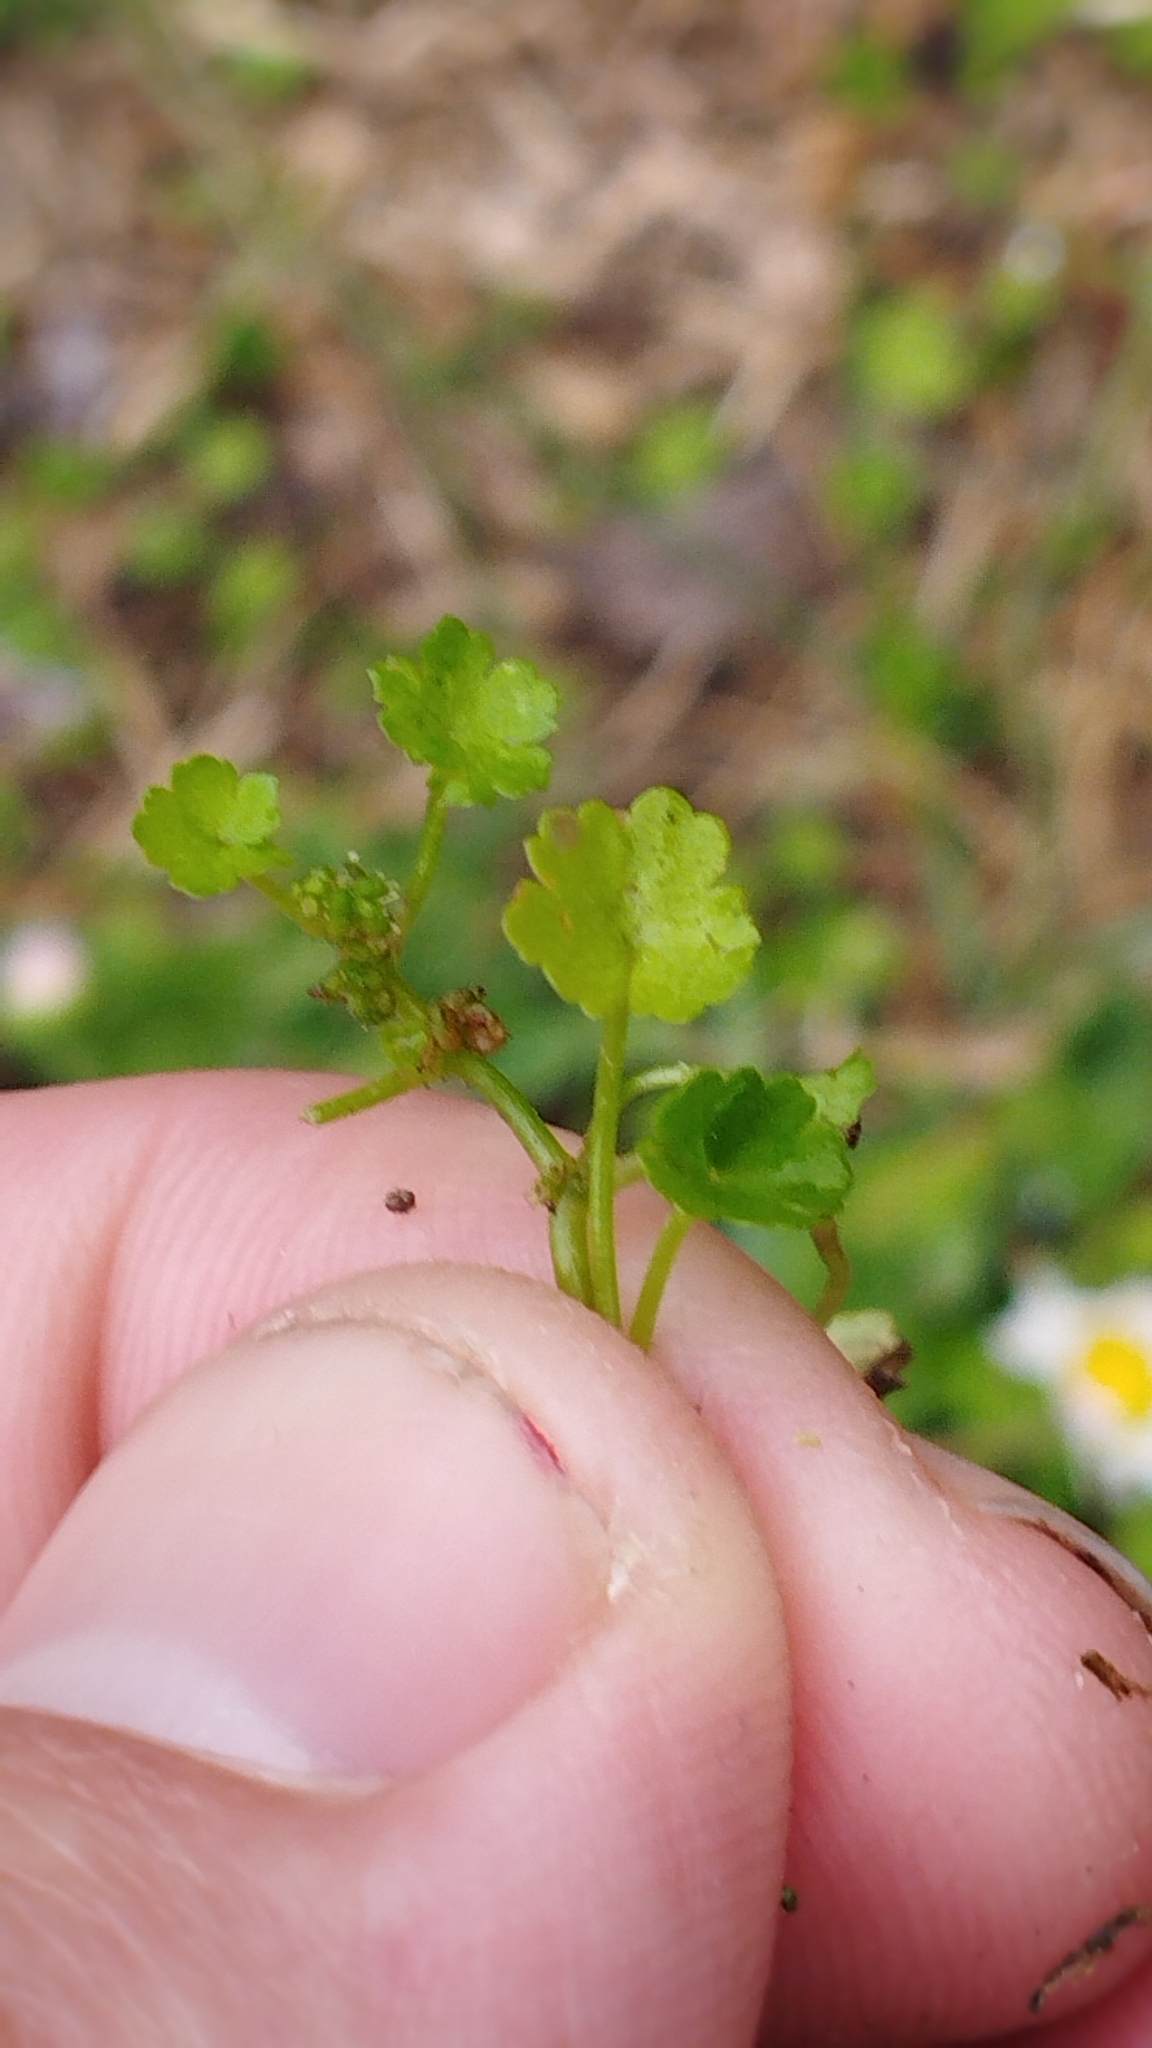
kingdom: Plantae
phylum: Tracheophyta
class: Magnoliopsida
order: Apiales
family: Araliaceae
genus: Hydrocotyle
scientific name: Hydrocotyle heteromeria
